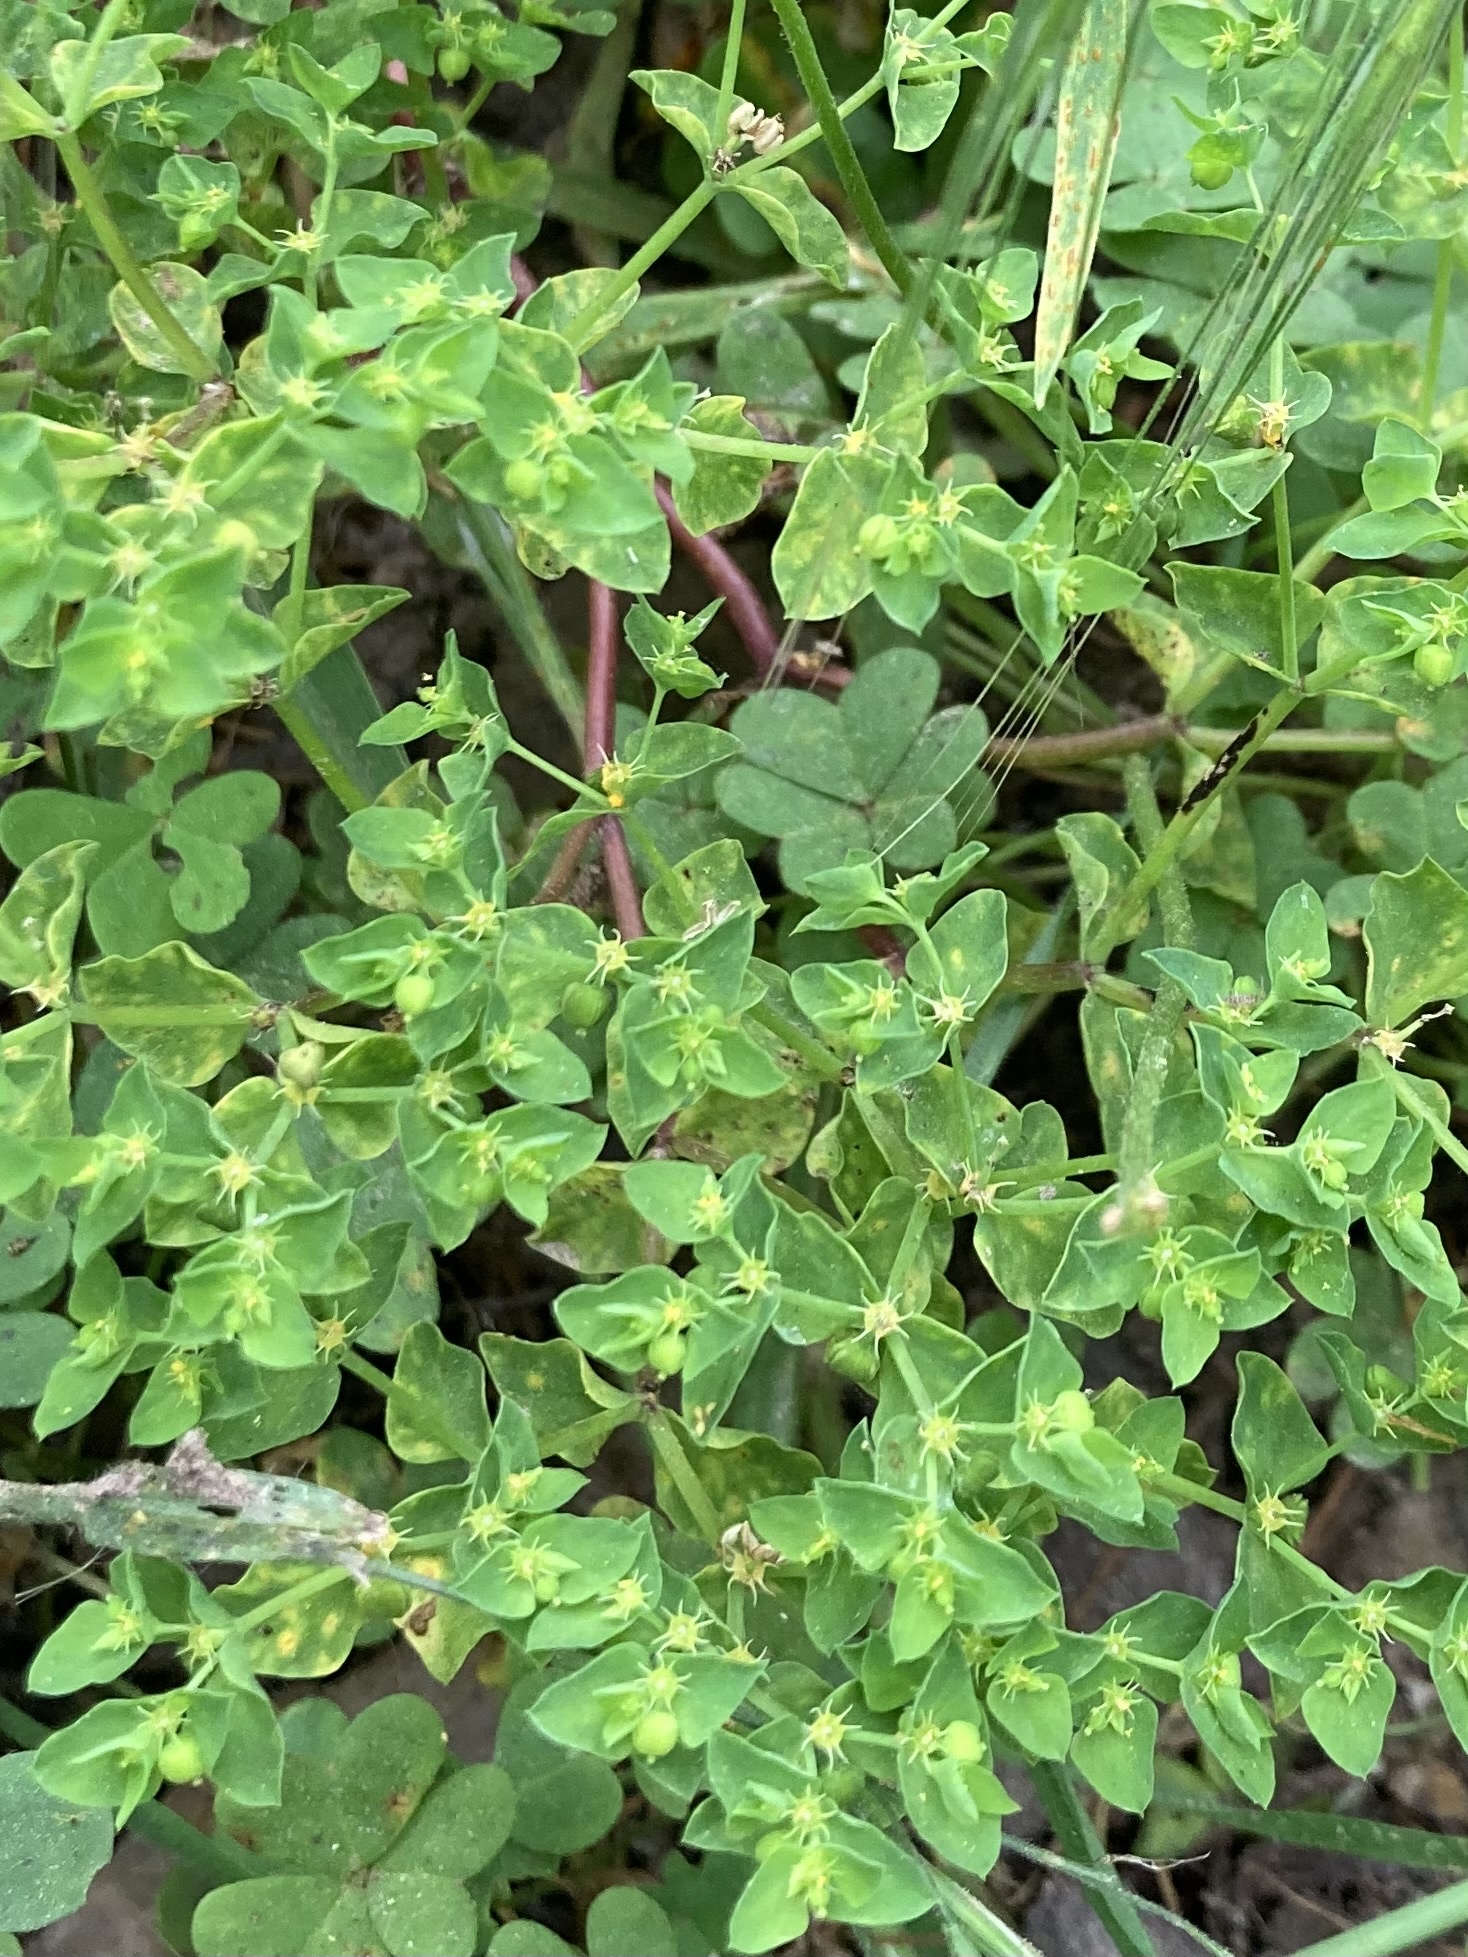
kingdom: Plantae
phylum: Tracheophyta
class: Magnoliopsida
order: Malpighiales
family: Euphorbiaceae
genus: Euphorbia
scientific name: Euphorbia peplus
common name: Petty spurge
